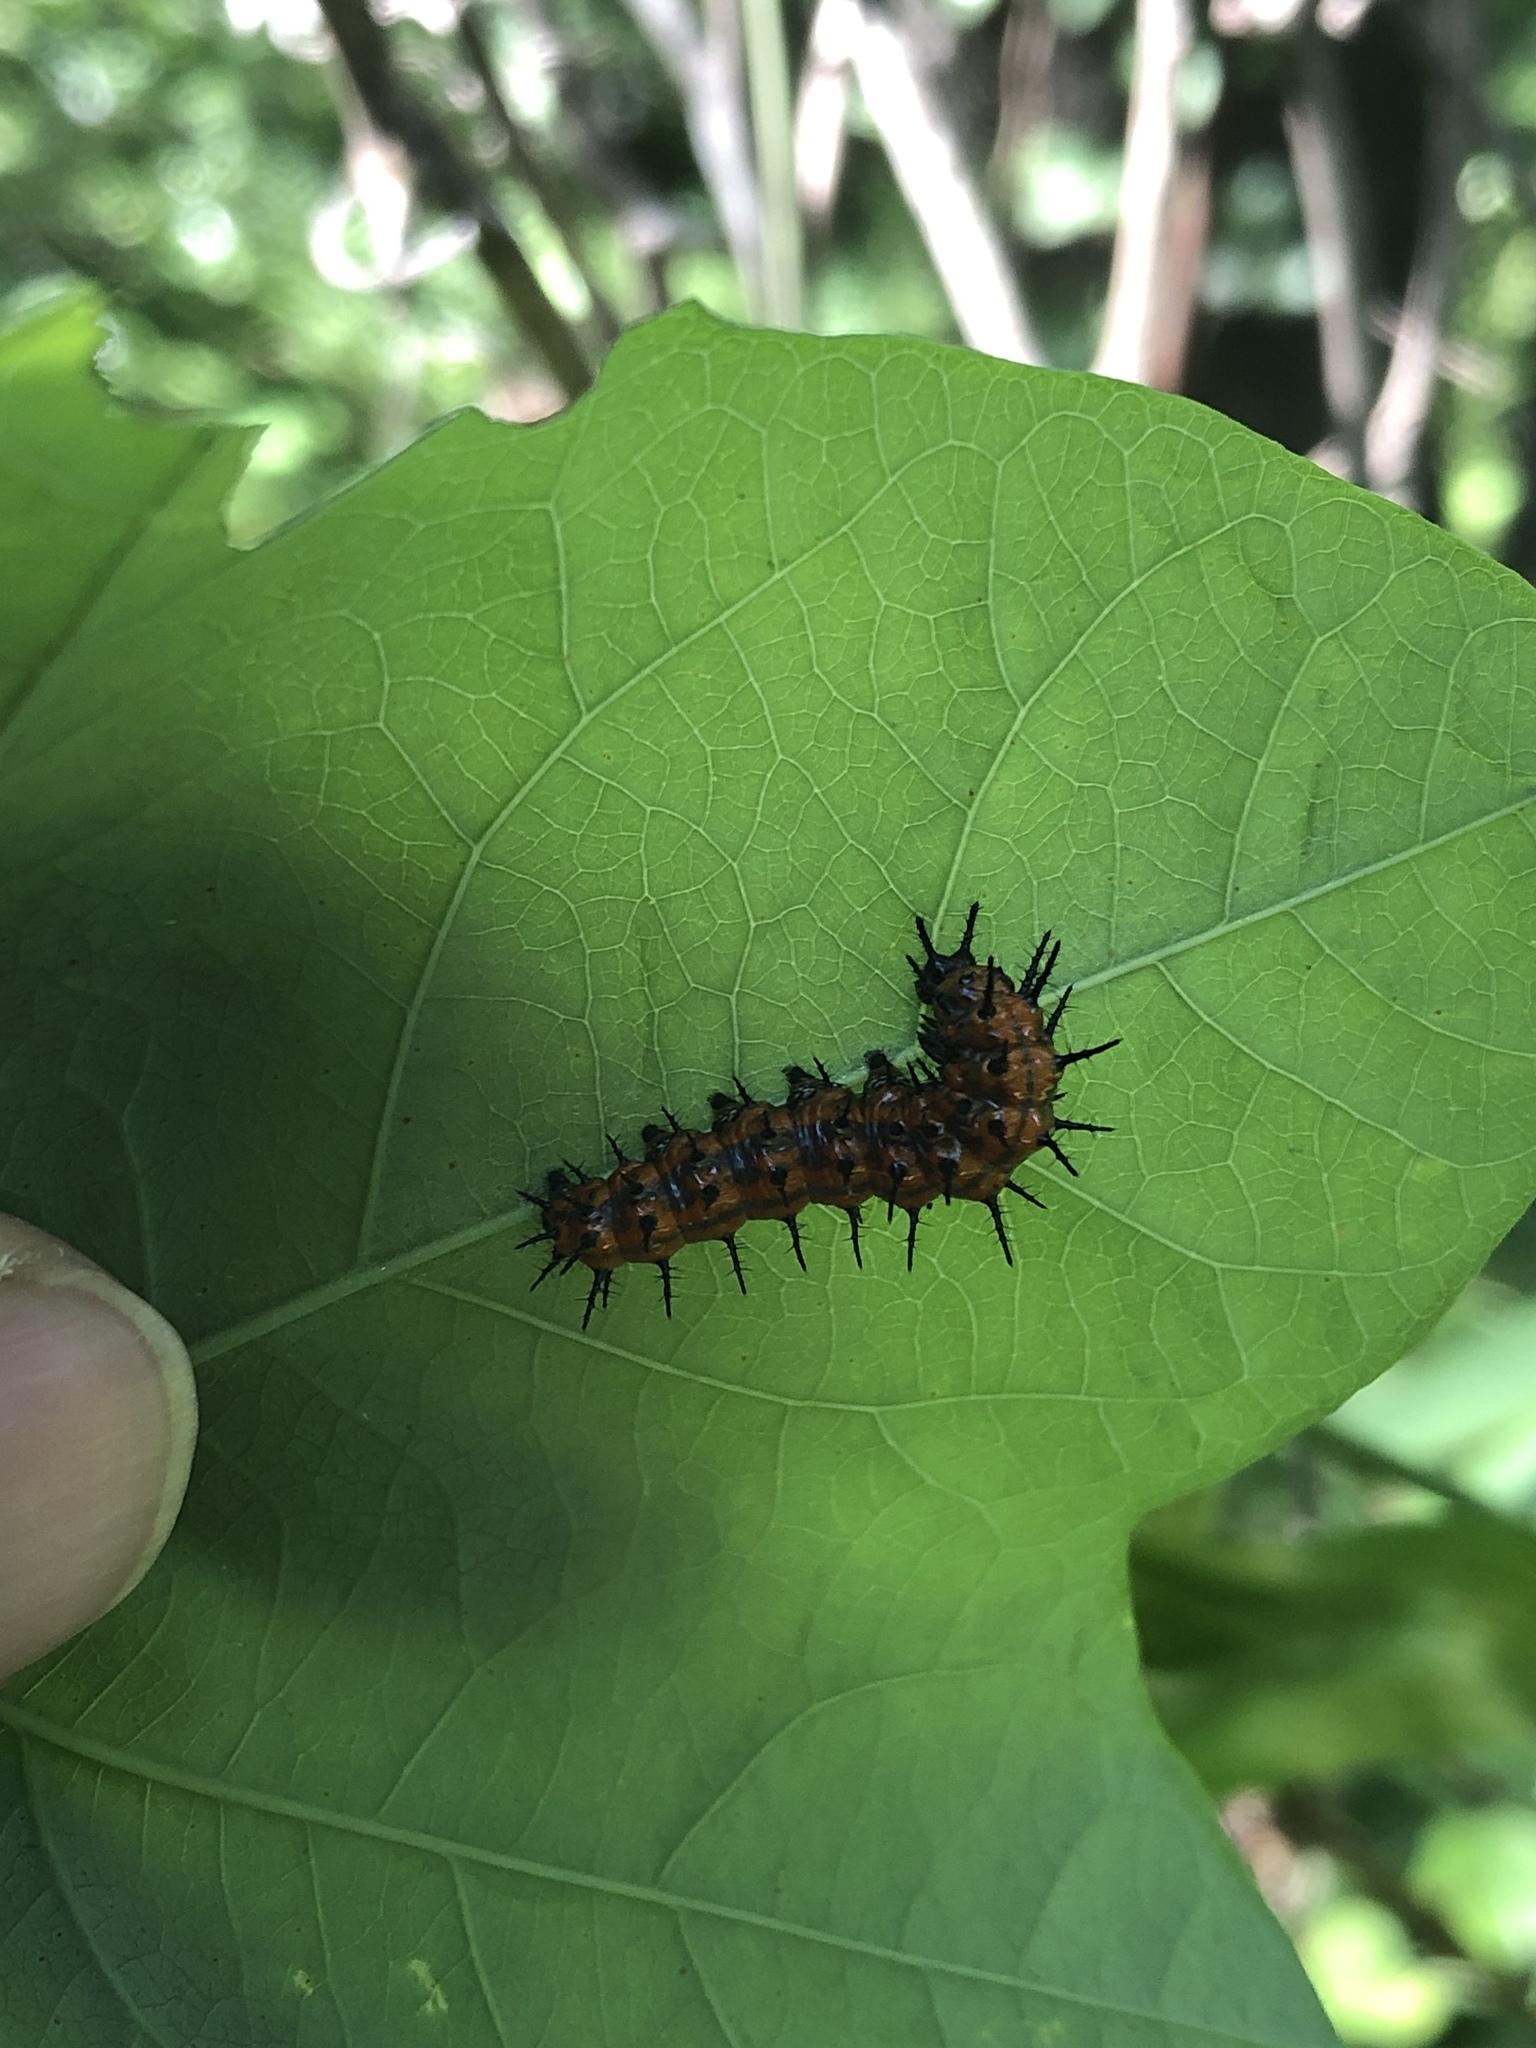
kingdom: Animalia
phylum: Arthropoda
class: Insecta
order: Lepidoptera
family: Nymphalidae
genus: Dione
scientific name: Dione vanillae
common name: Gulf fritillary
